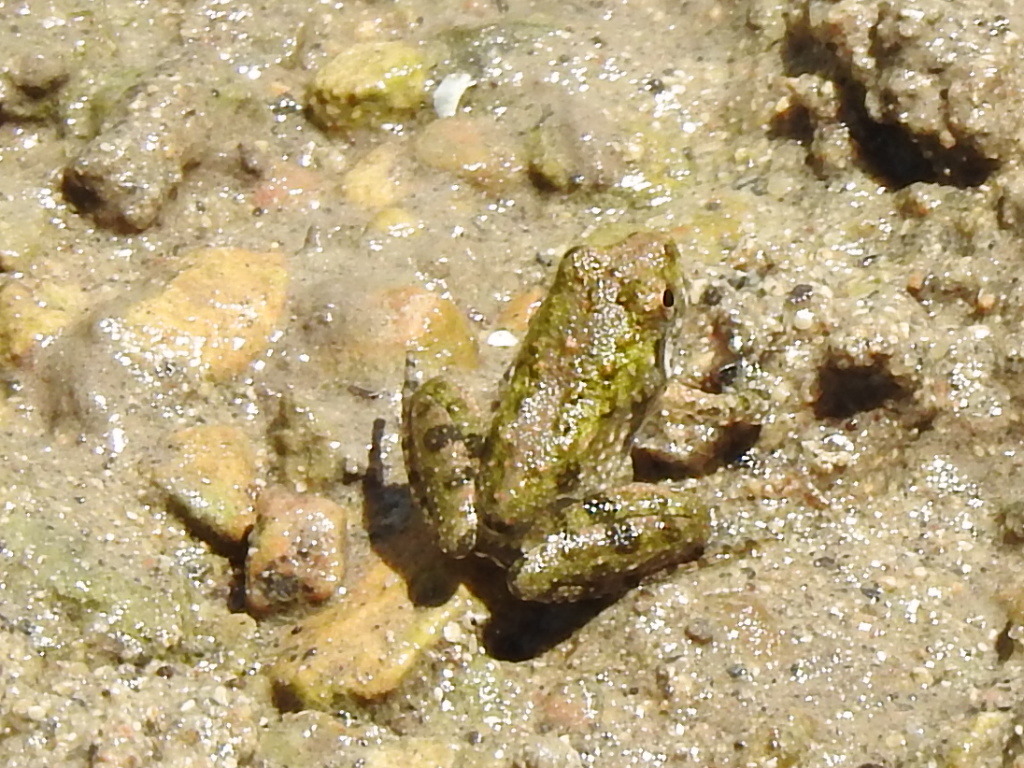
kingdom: Animalia
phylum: Chordata
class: Amphibia
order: Anura
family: Hylidae
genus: Acris
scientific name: Acris blanchardi
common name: Blanchard's cricket frog
